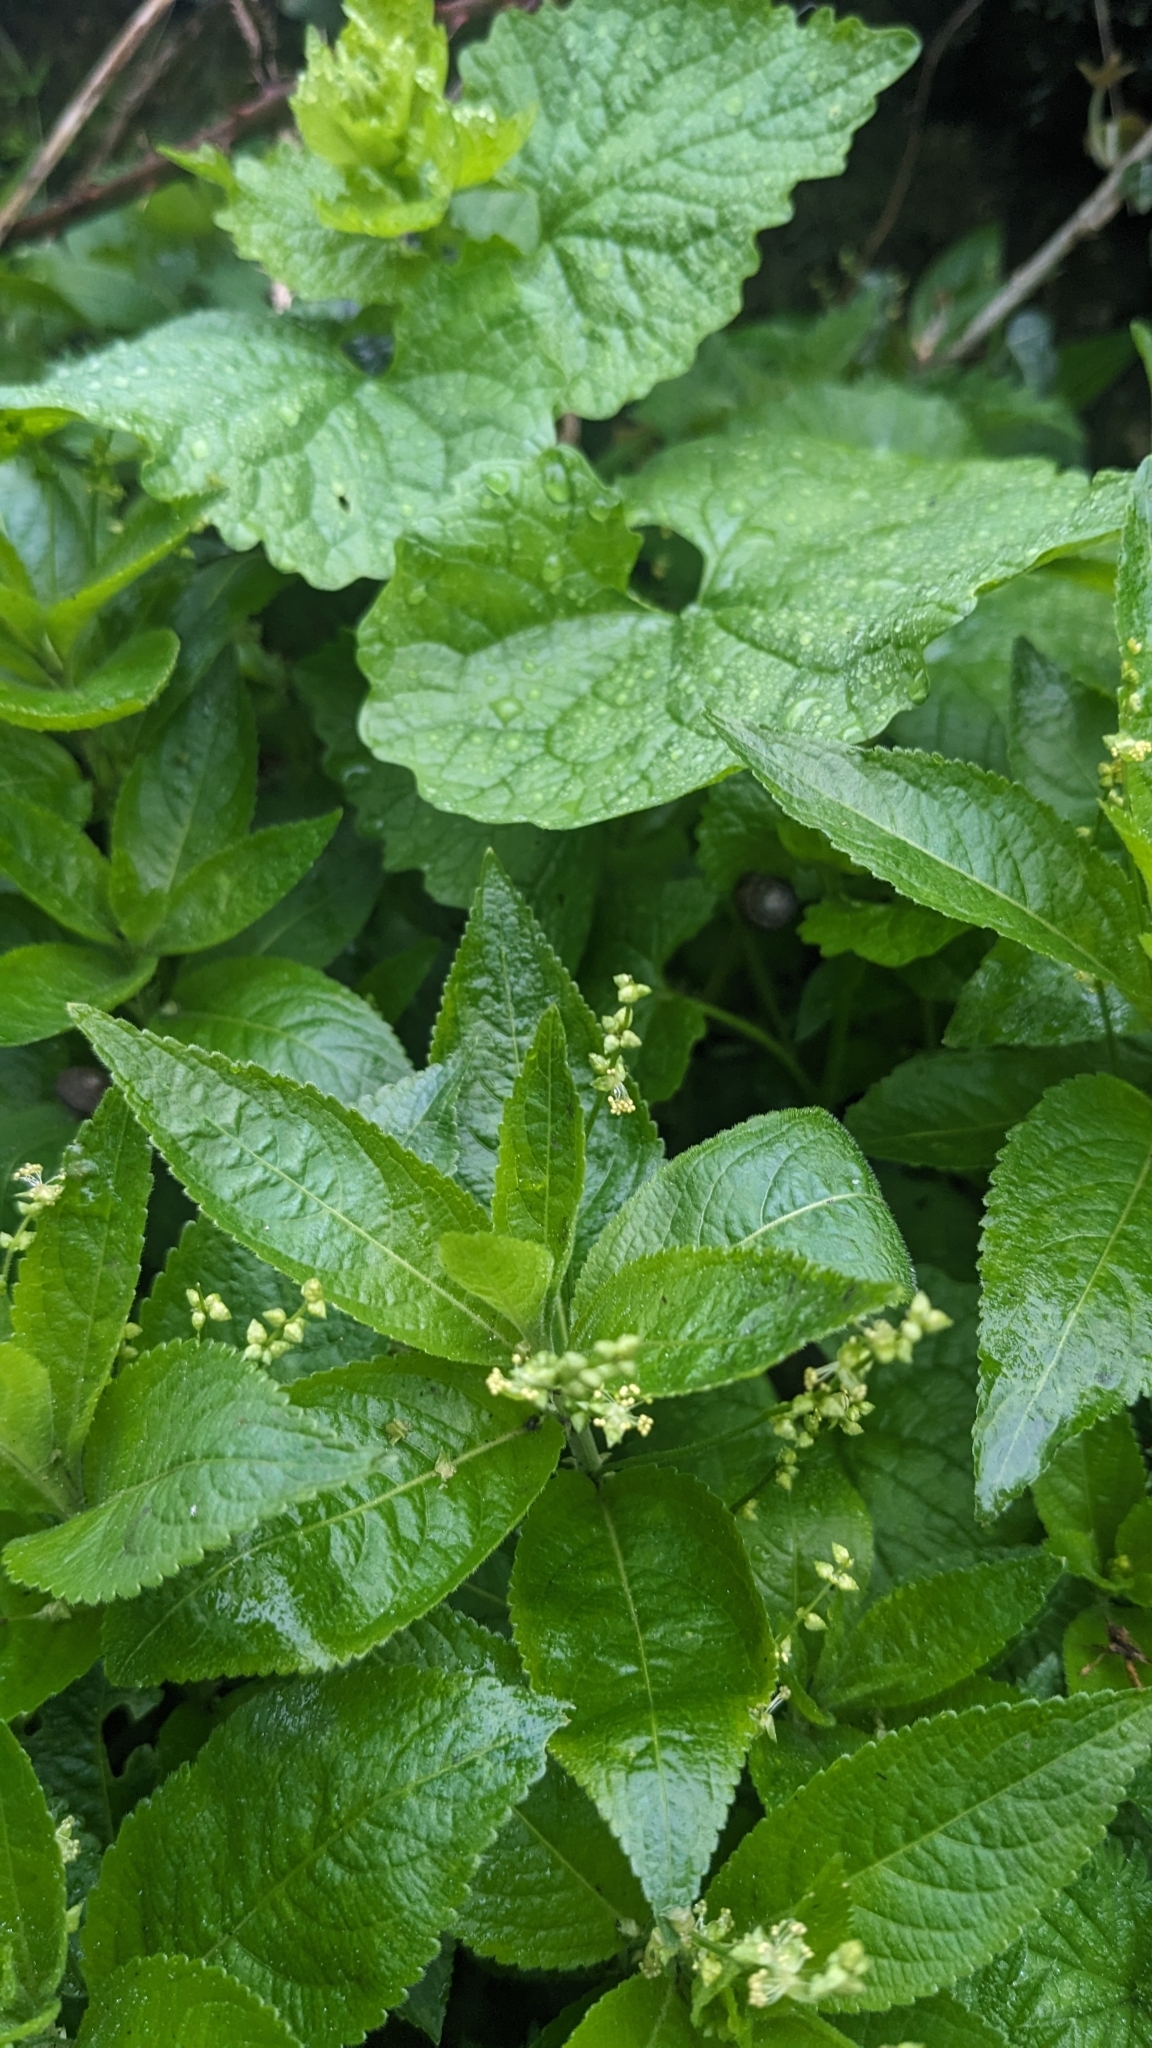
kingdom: Plantae
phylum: Tracheophyta
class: Magnoliopsida
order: Malpighiales
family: Euphorbiaceae
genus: Mercurialis
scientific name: Mercurialis perennis
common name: Dog mercury
